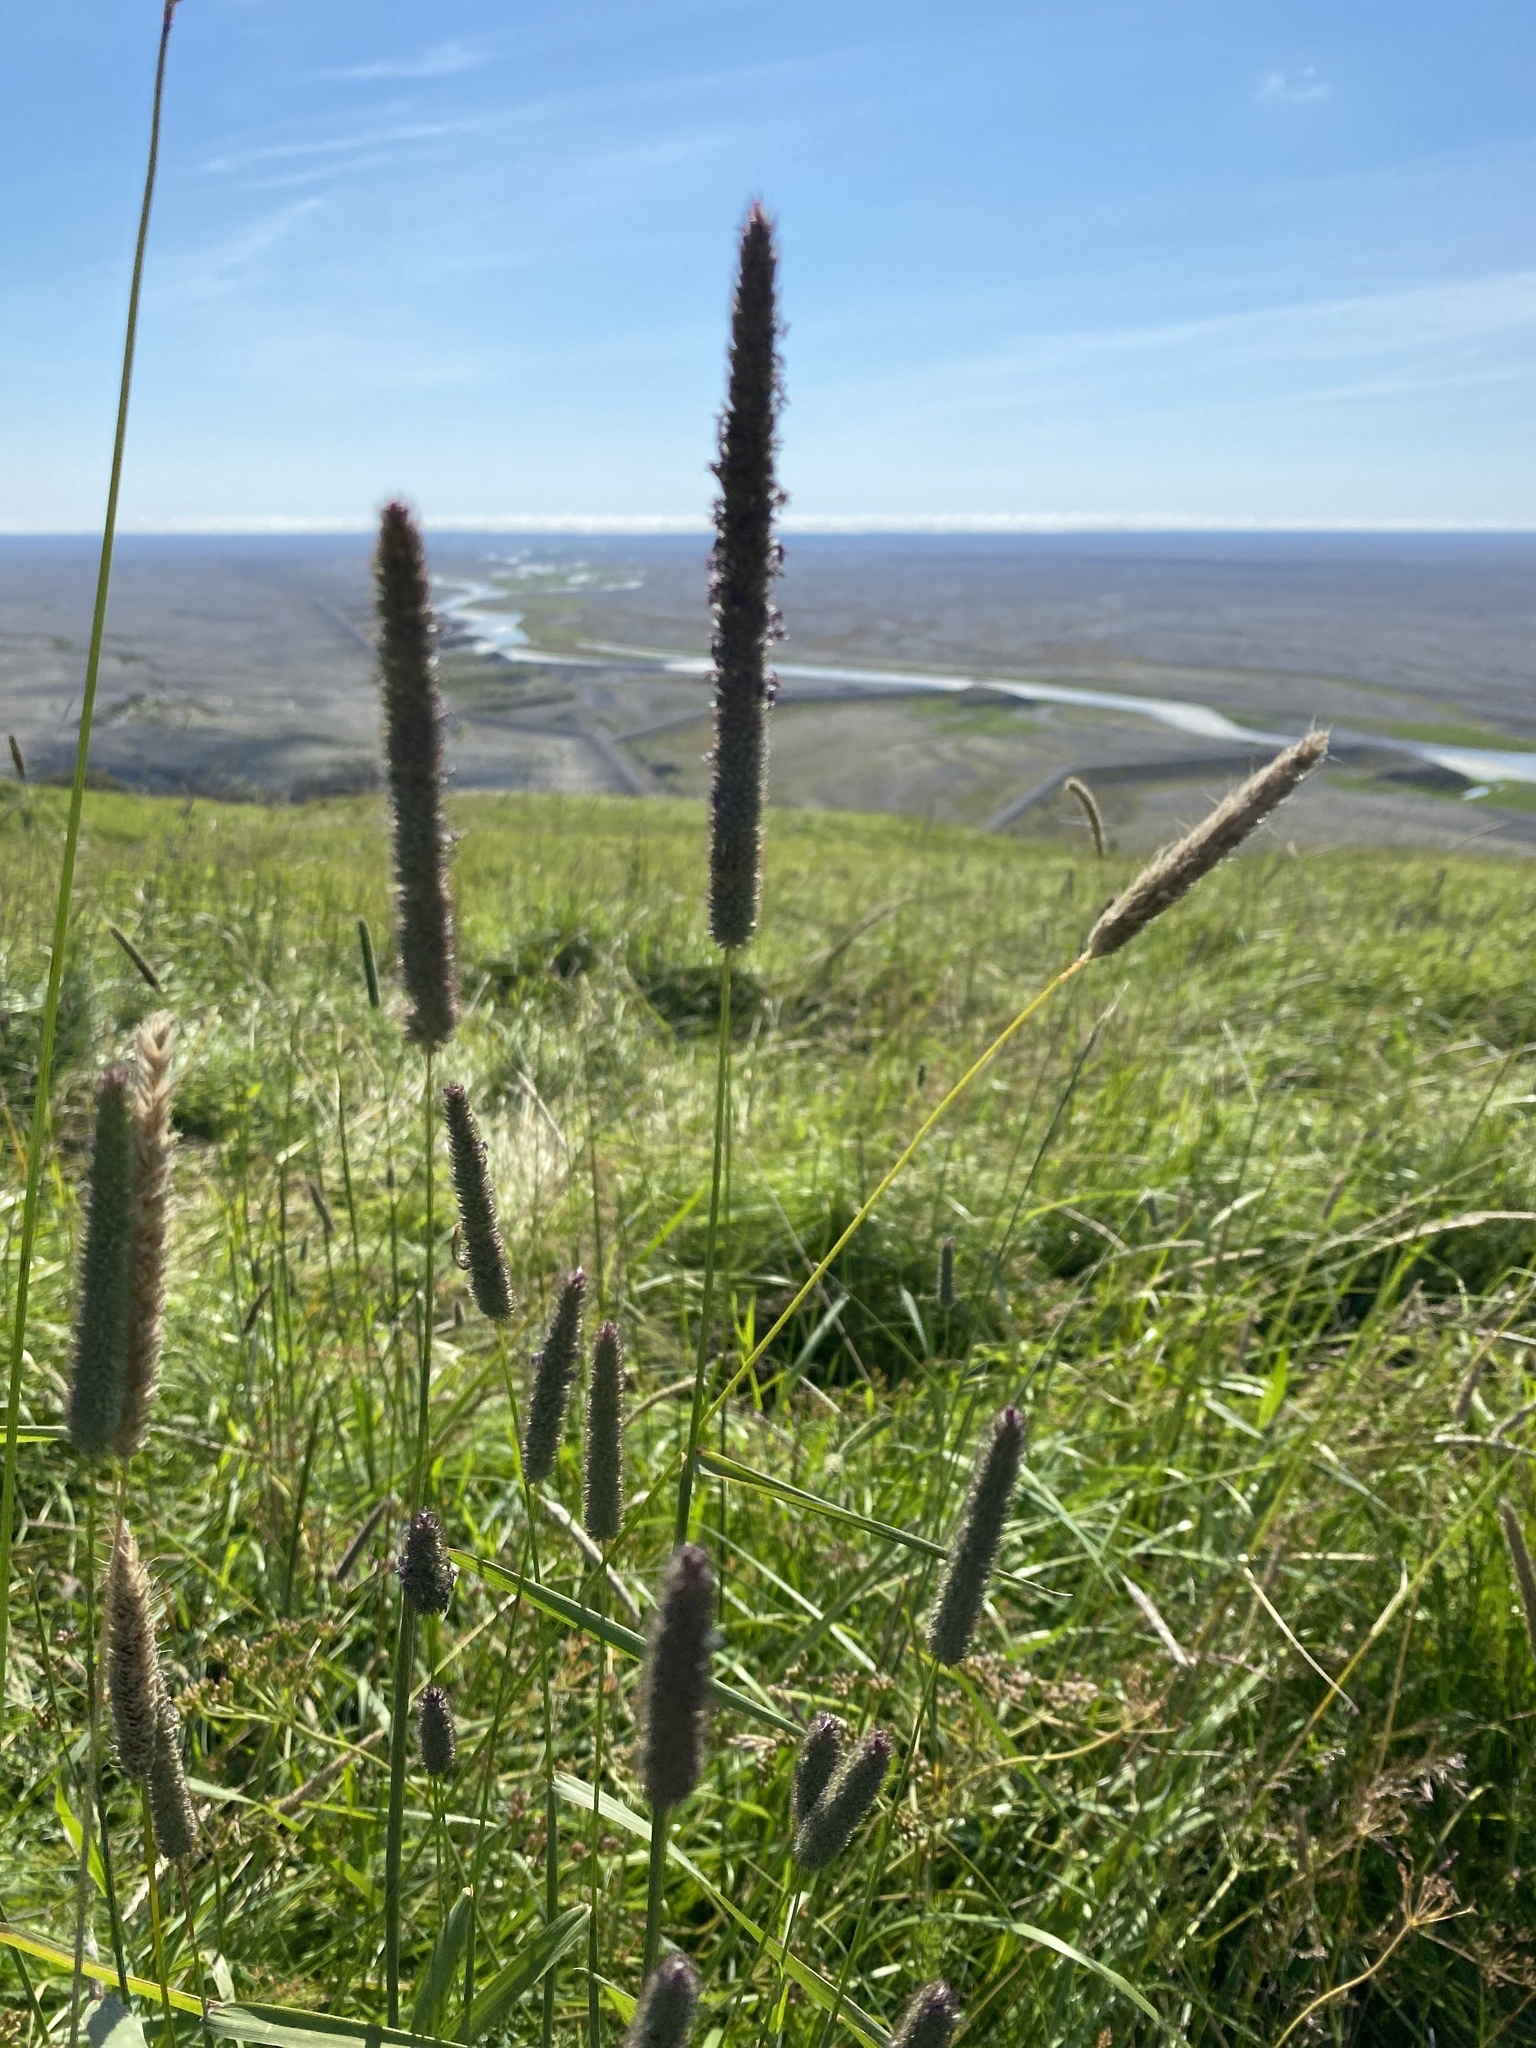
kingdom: Plantae
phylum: Tracheophyta
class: Liliopsida
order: Poales
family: Poaceae
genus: Phleum
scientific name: Phleum pratense
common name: Timothy grass
